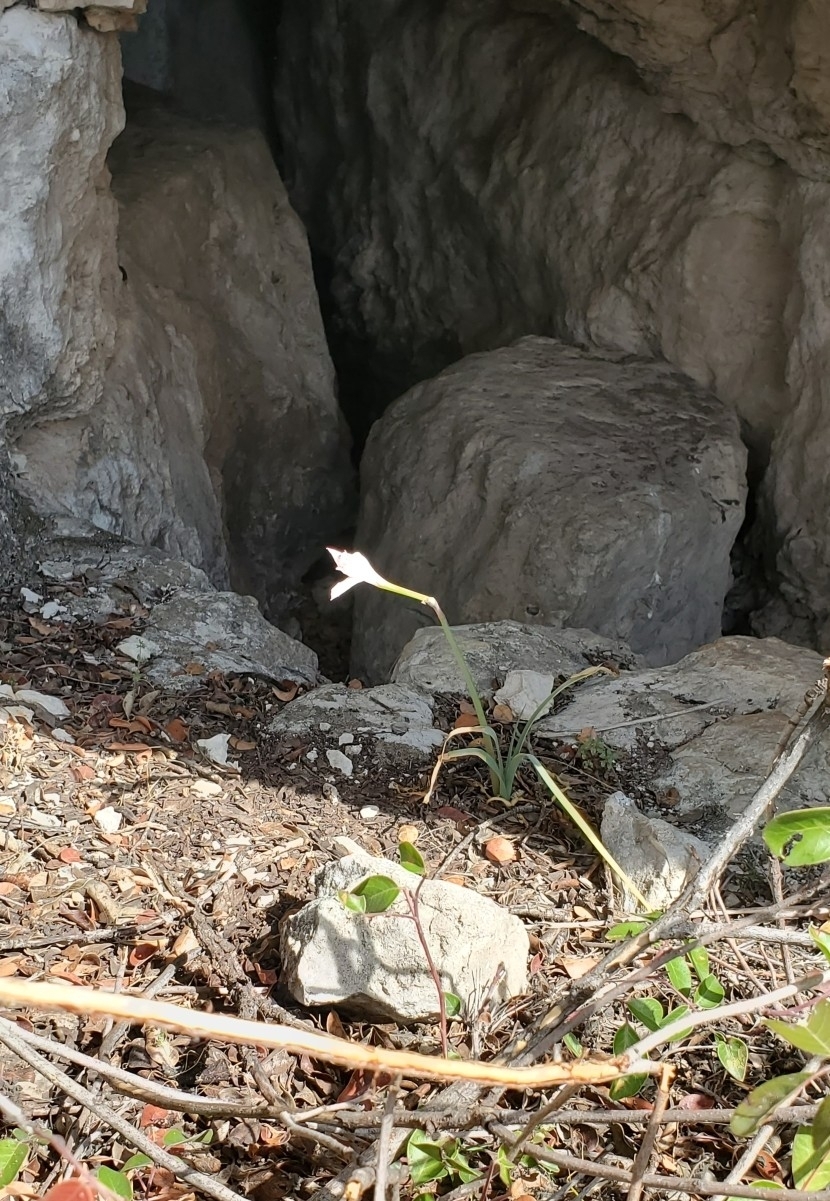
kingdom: Plantae
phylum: Tracheophyta
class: Liliopsida
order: Asparagales
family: Amaryllidaceae
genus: Zephyranthes
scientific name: Zephyranthes drummondii
